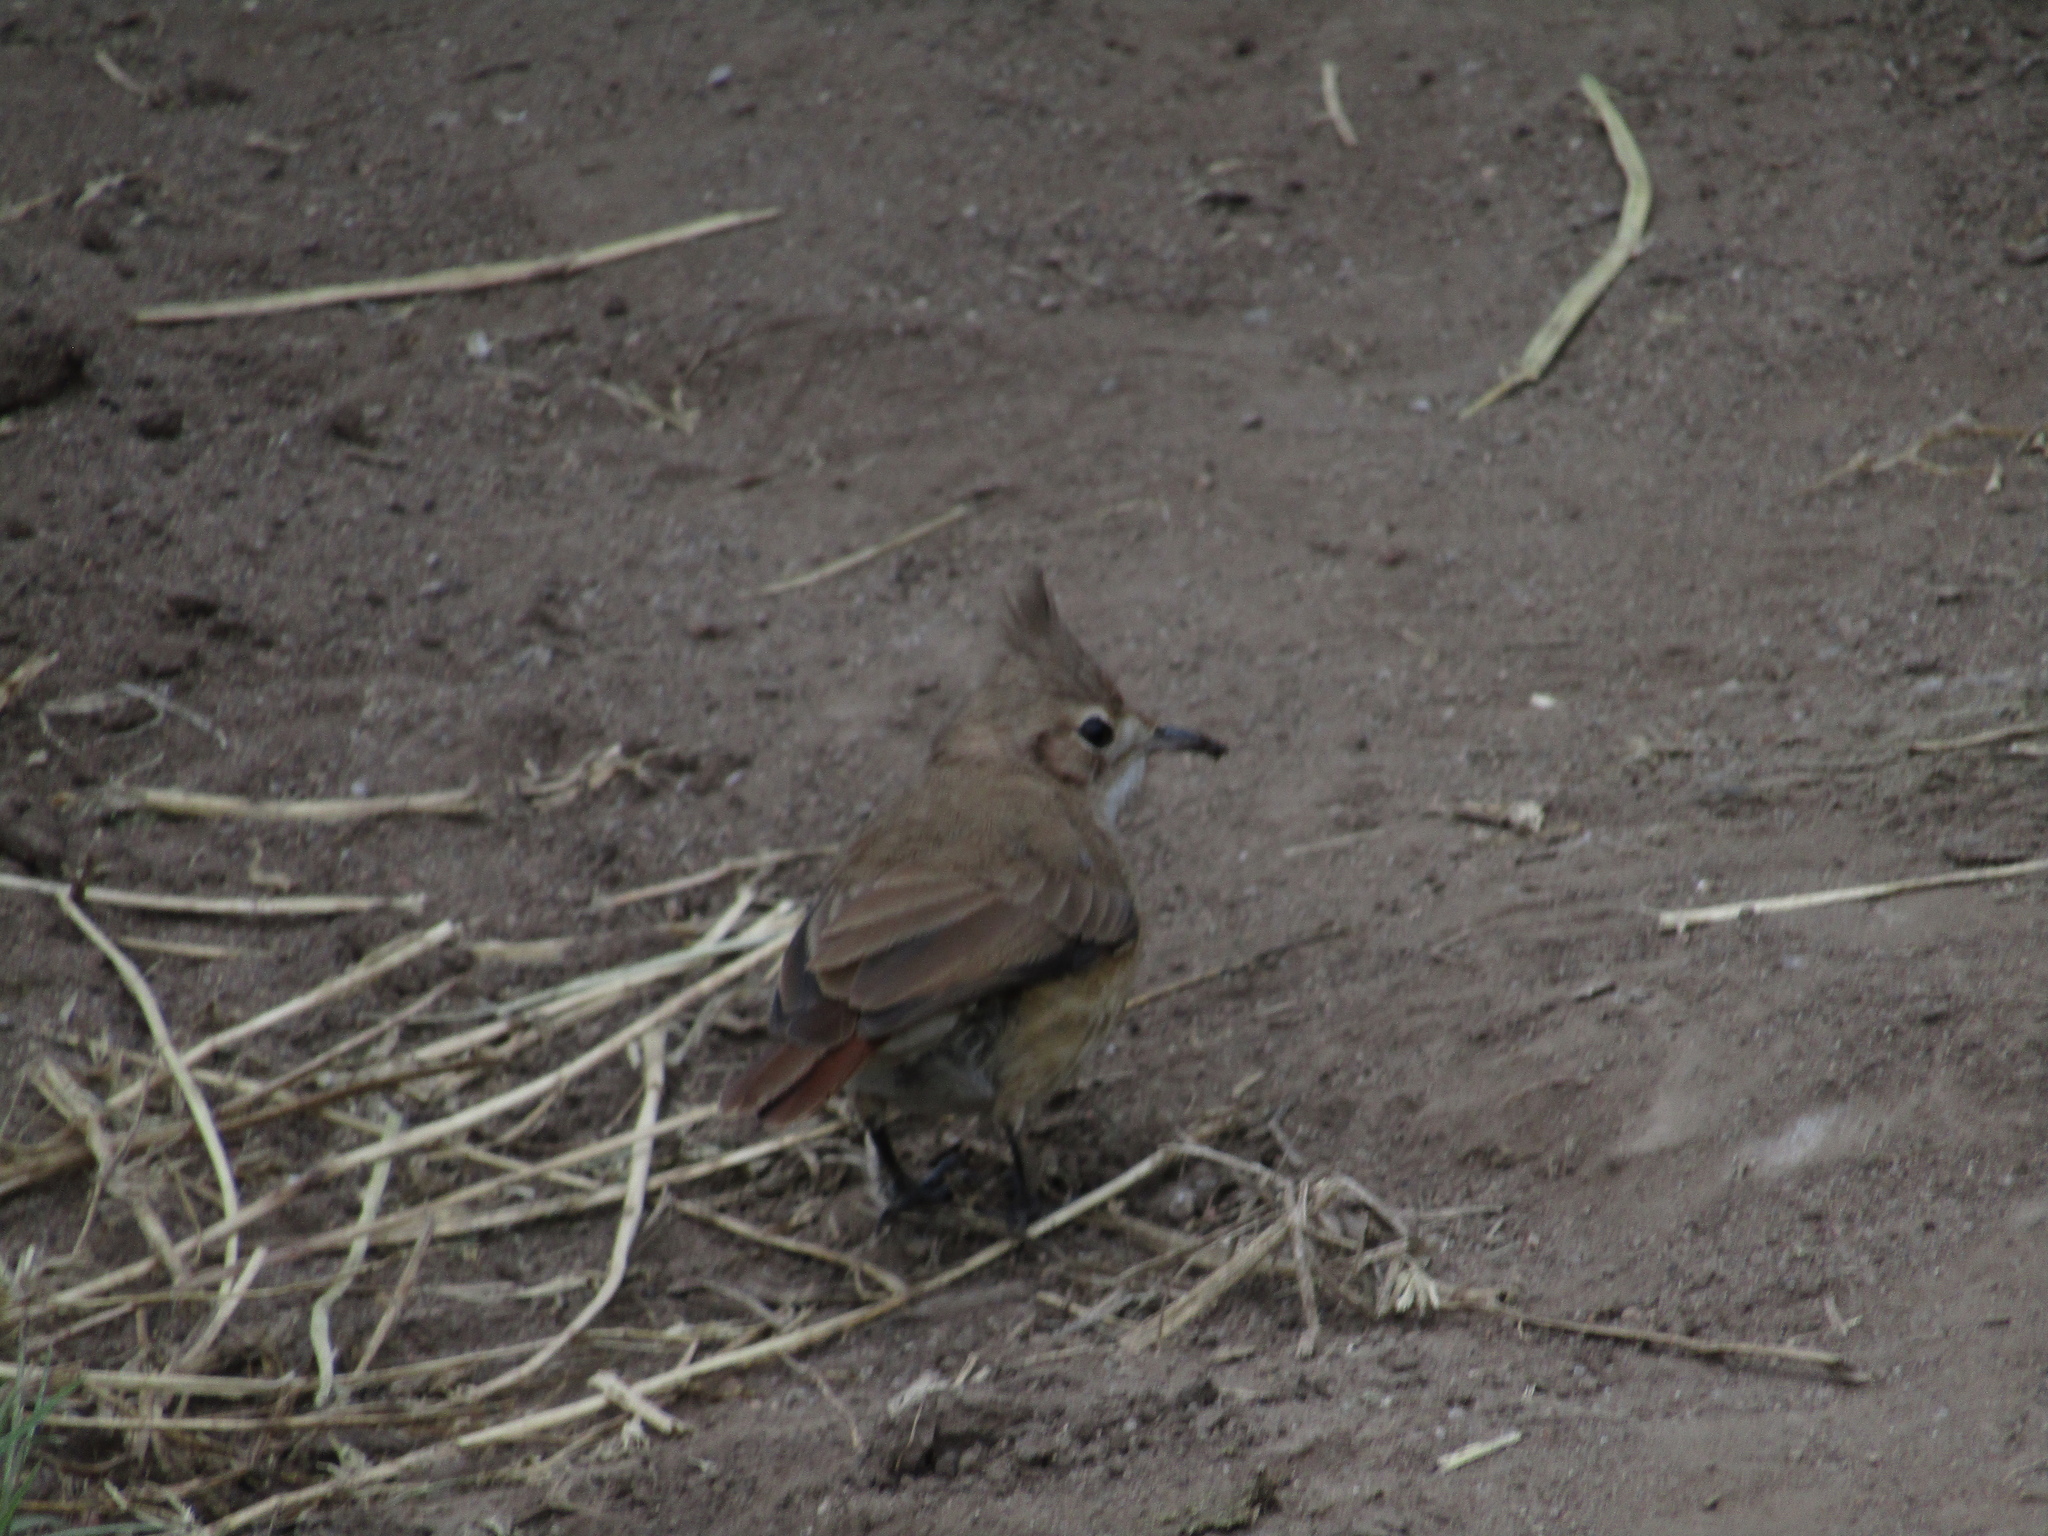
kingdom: Animalia
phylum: Chordata
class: Aves
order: Passeriformes
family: Furnariidae
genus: Furnarius
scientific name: Furnarius cristatus
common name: Crested hornero
